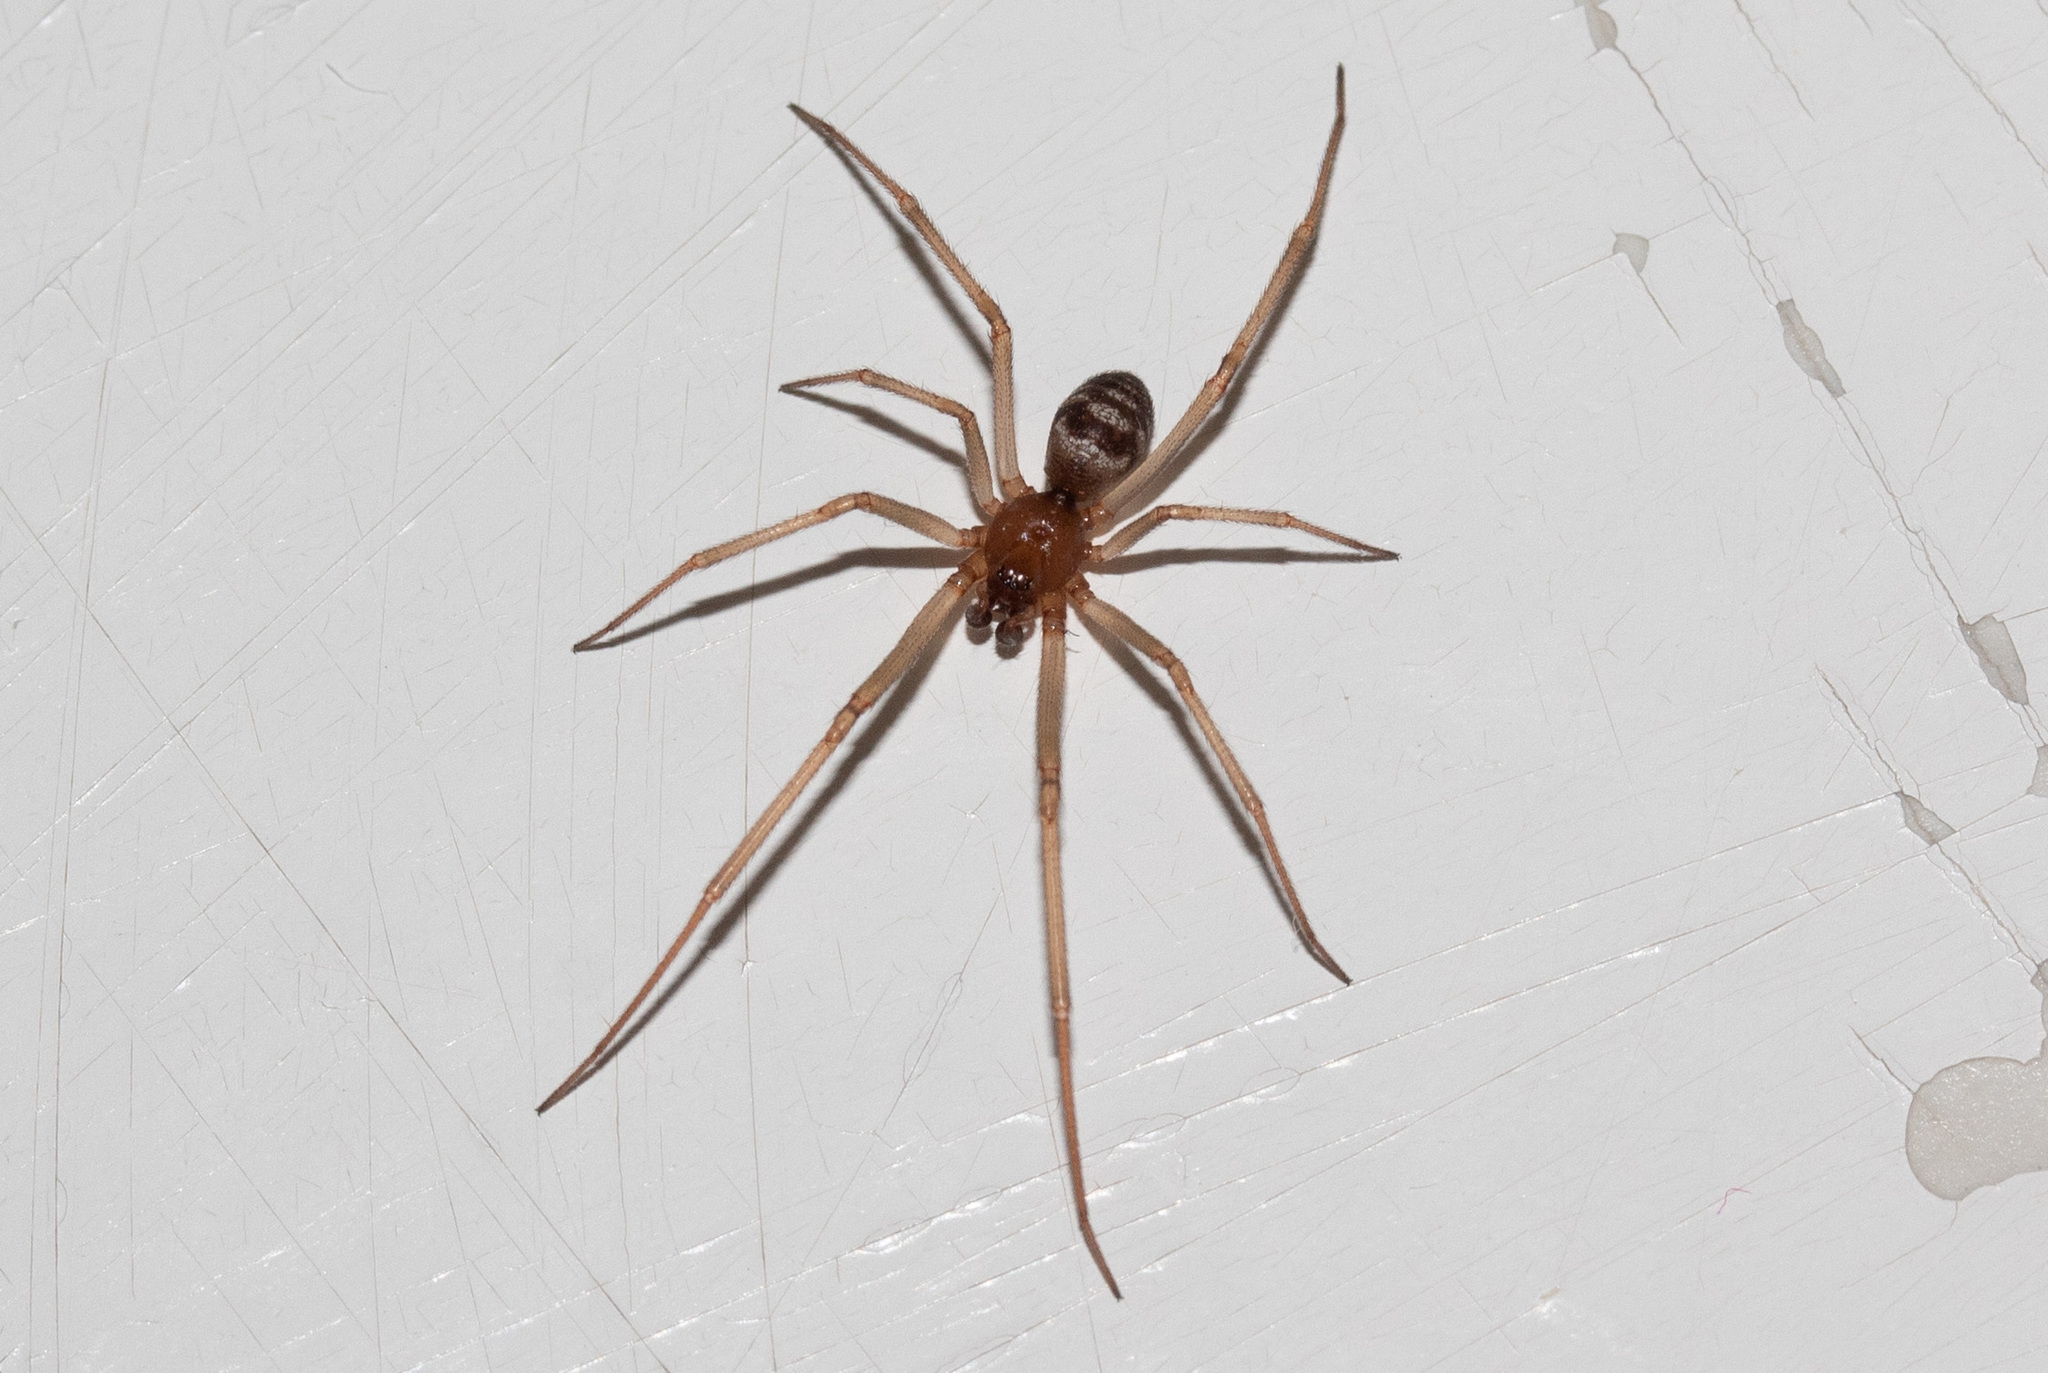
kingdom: Animalia
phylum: Arthropoda
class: Arachnida
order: Araneae
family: Theridiidae
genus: Steatoda
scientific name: Steatoda grossa
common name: False black widow
